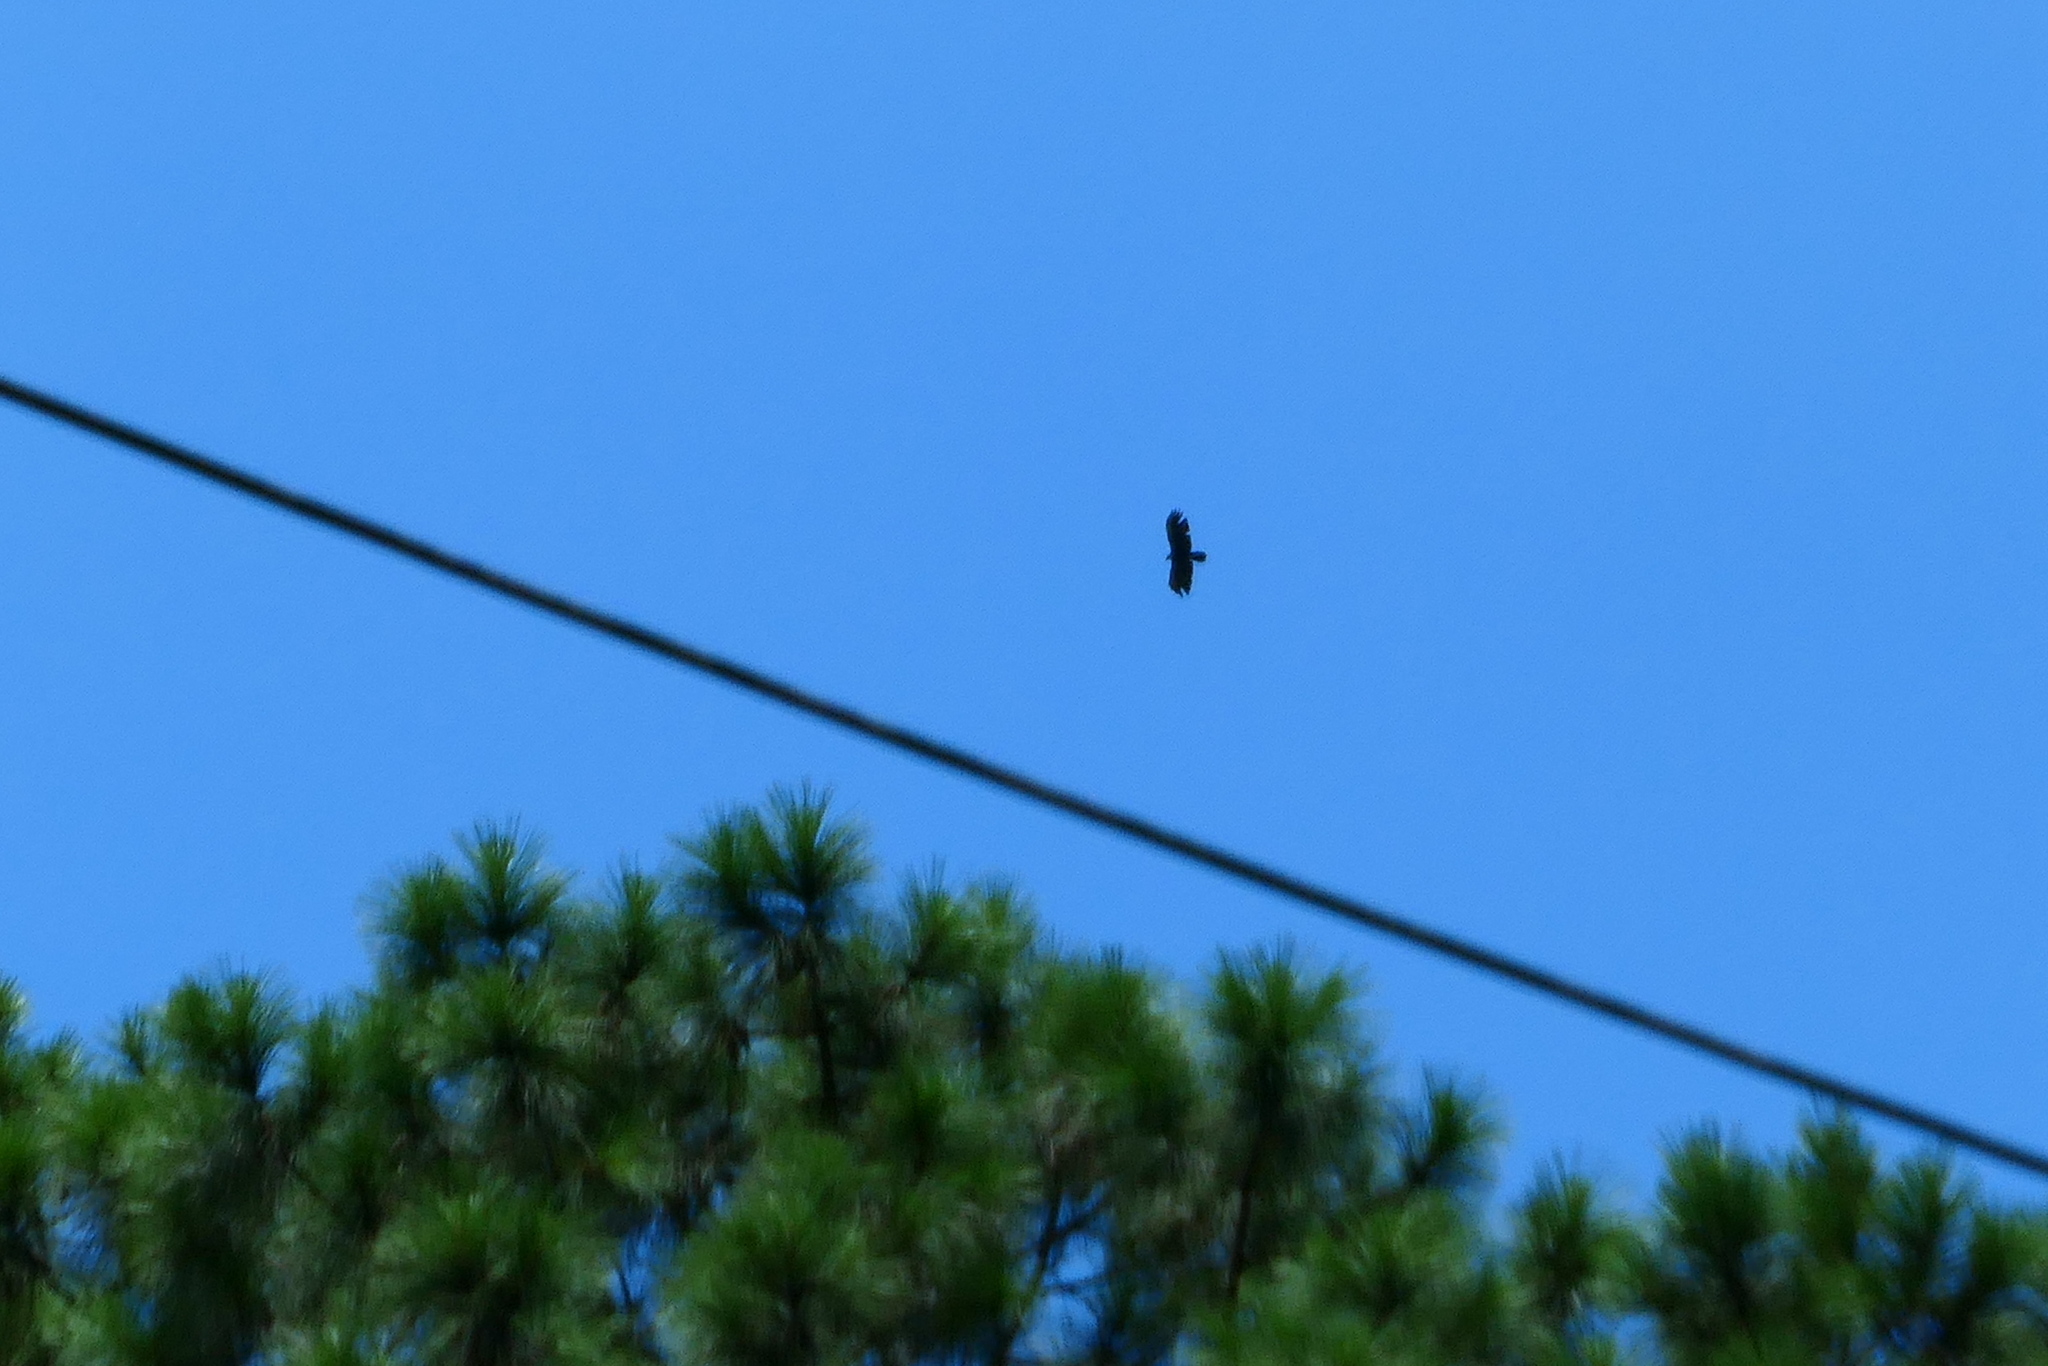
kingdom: Animalia
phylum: Chordata
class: Aves
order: Accipitriformes
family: Accipitridae
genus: Ictinaetus
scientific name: Ictinaetus malayensis
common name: Black eagle
